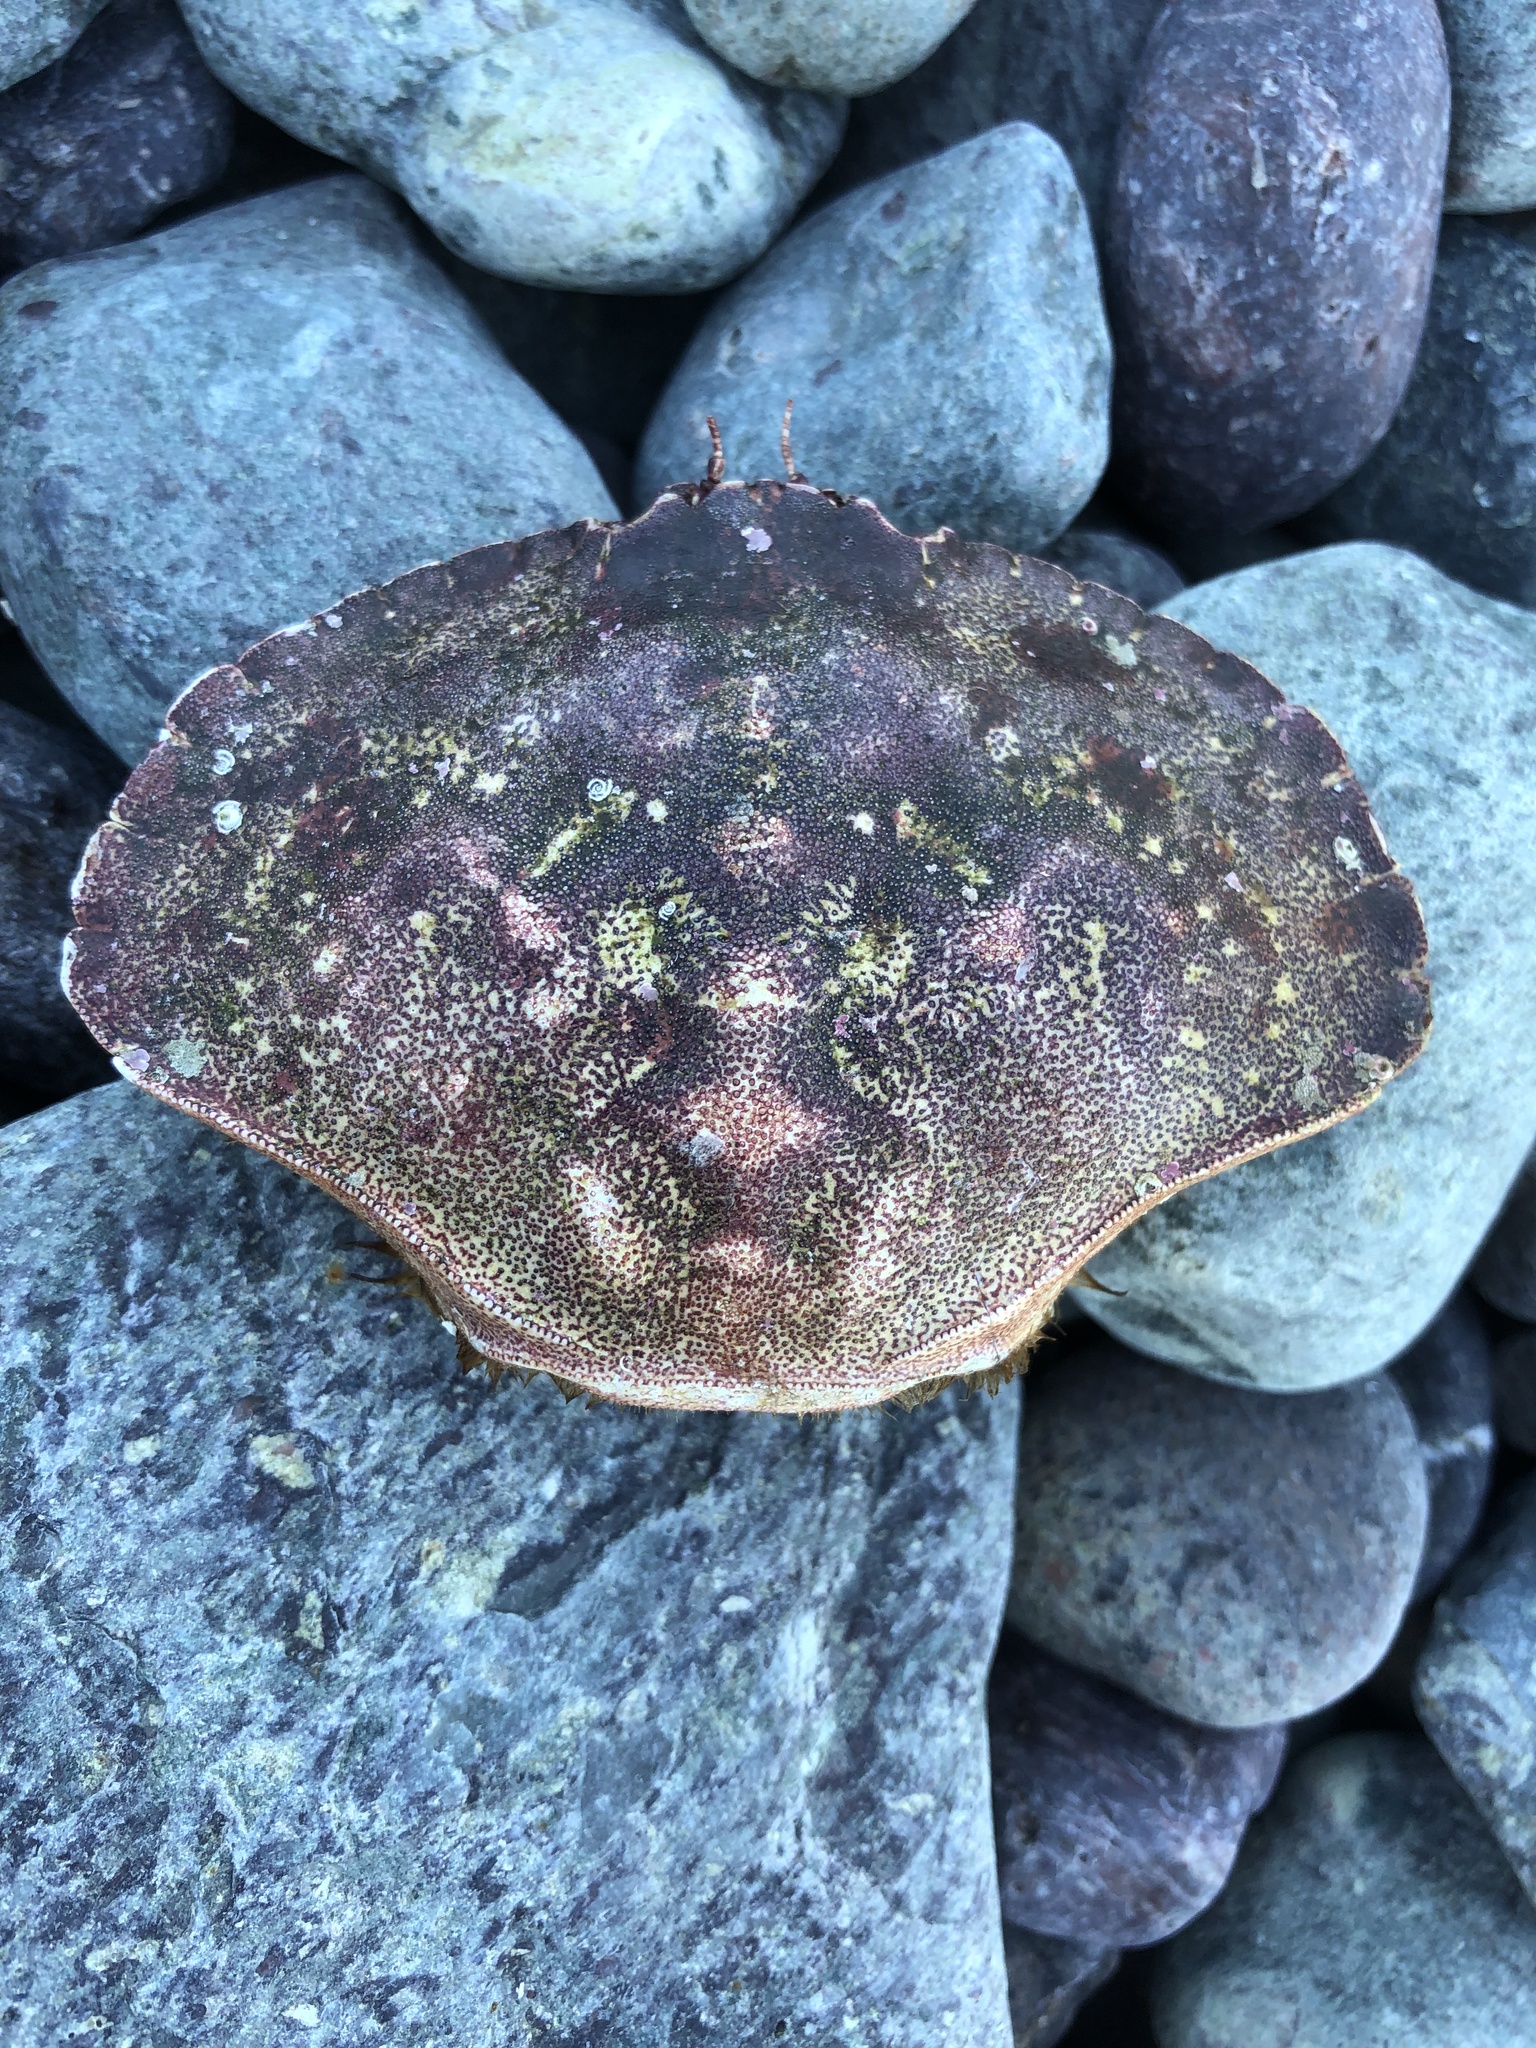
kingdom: Animalia
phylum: Arthropoda
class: Malacostraca
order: Decapoda
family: Cancridae
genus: Cancer
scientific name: Cancer irroratus
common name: Atlantic rock crab
